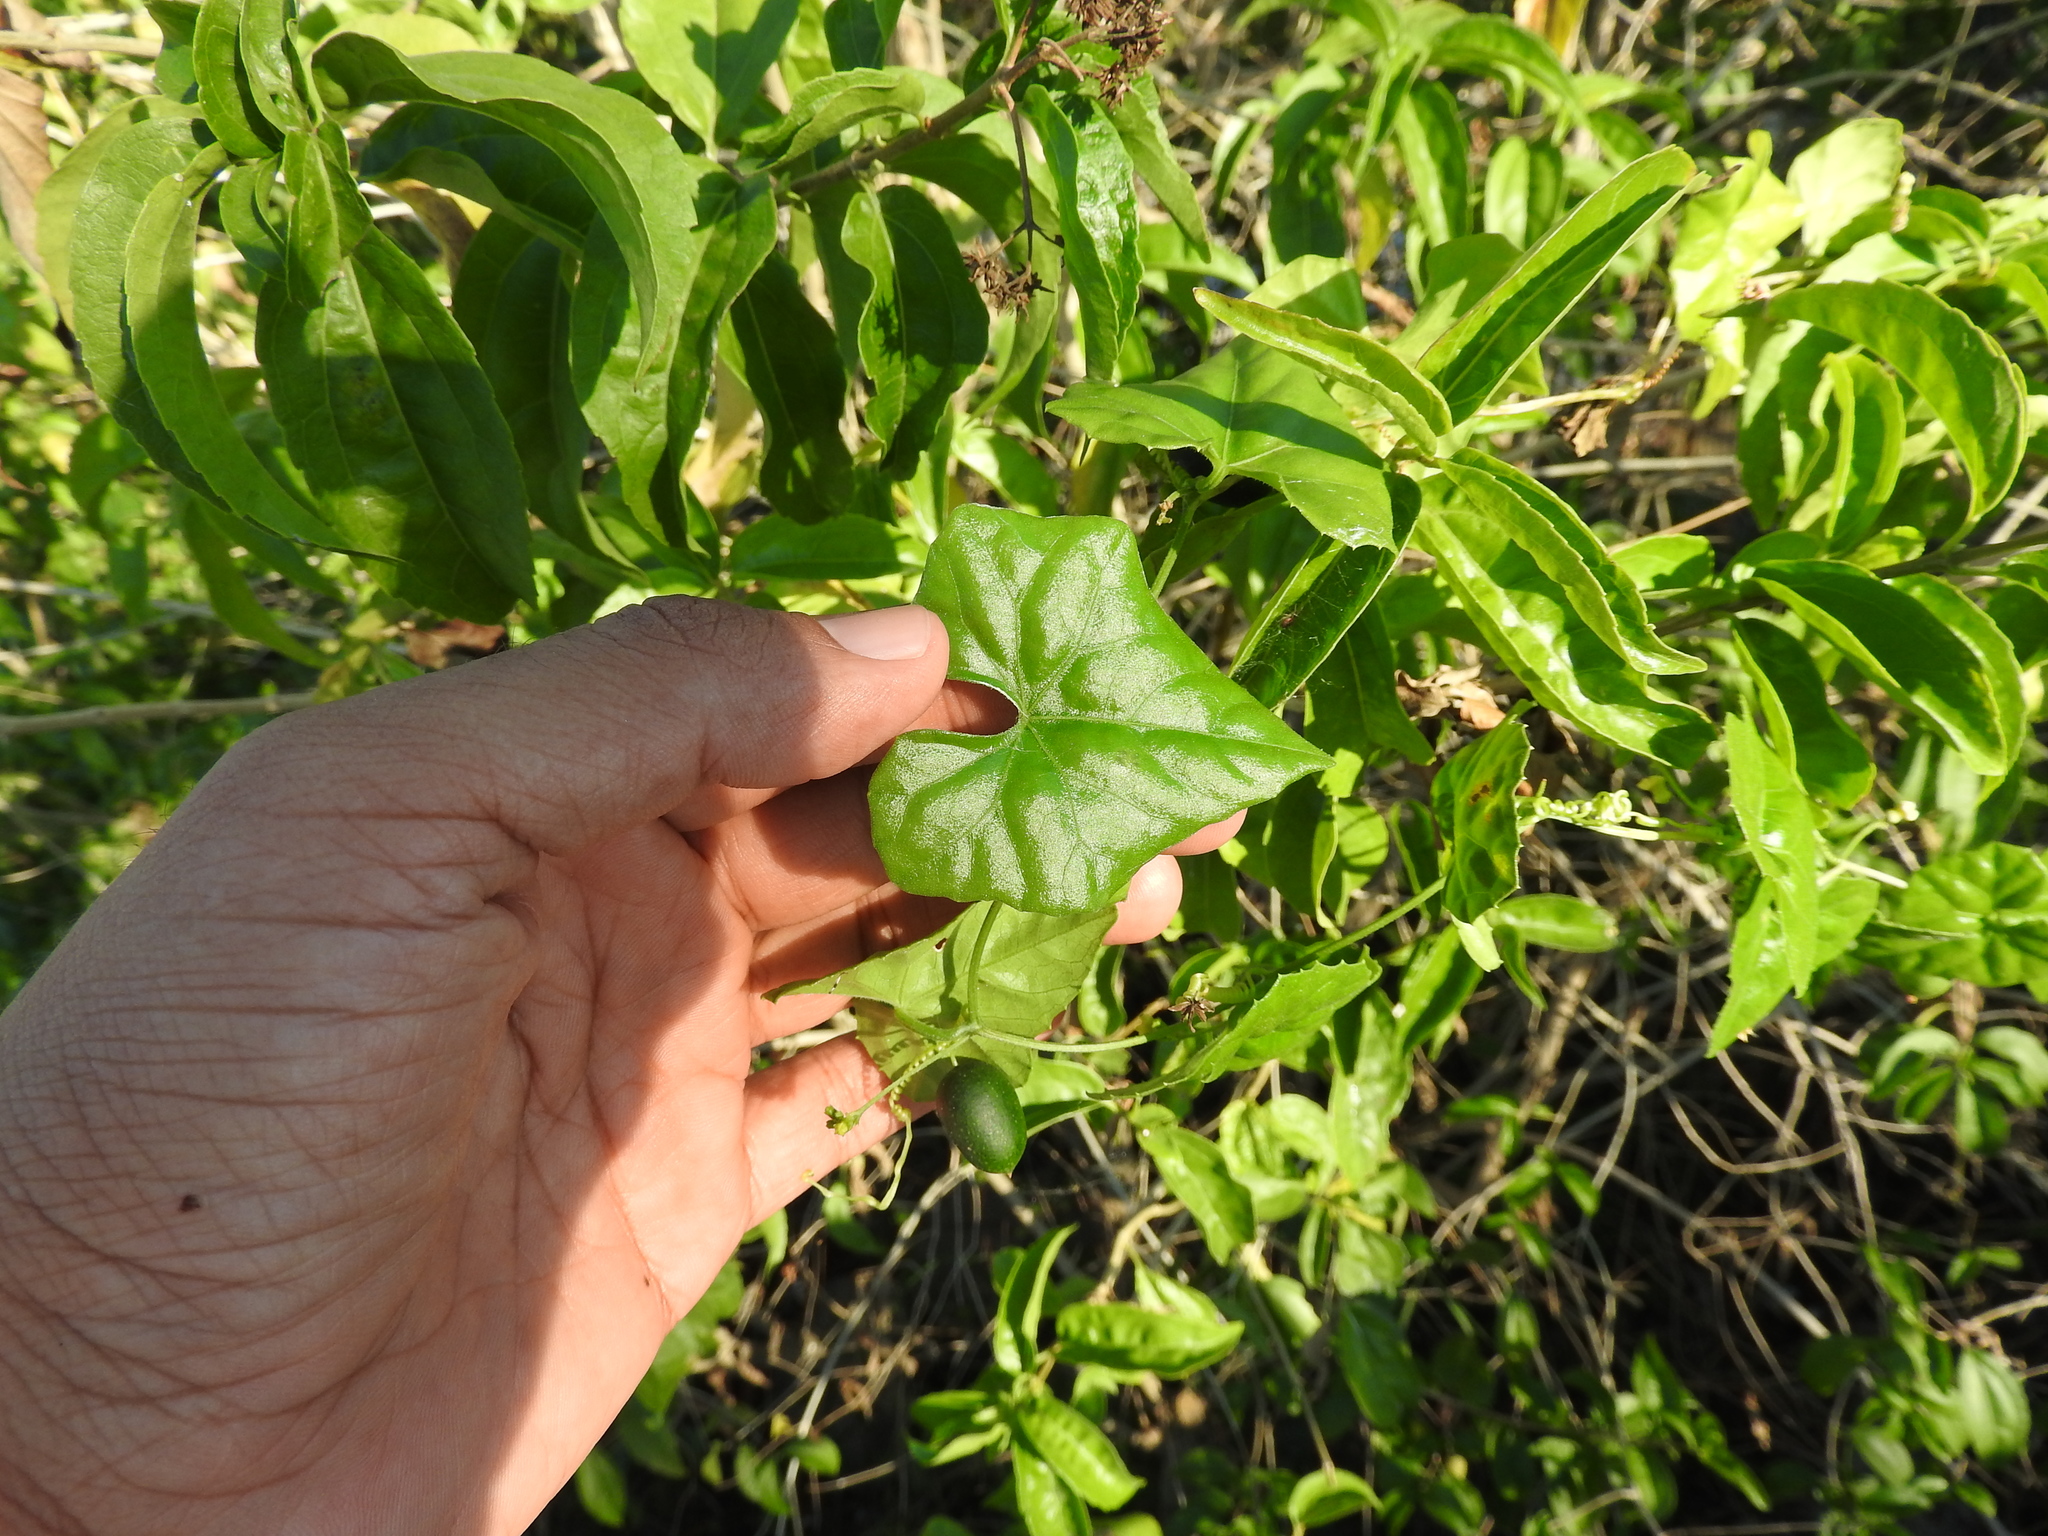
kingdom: Plantae
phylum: Tracheophyta
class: Magnoliopsida
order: Cucurbitales
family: Cucurbitaceae
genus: Melothria
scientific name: Melothria pendula
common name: Creeping-cucumber
